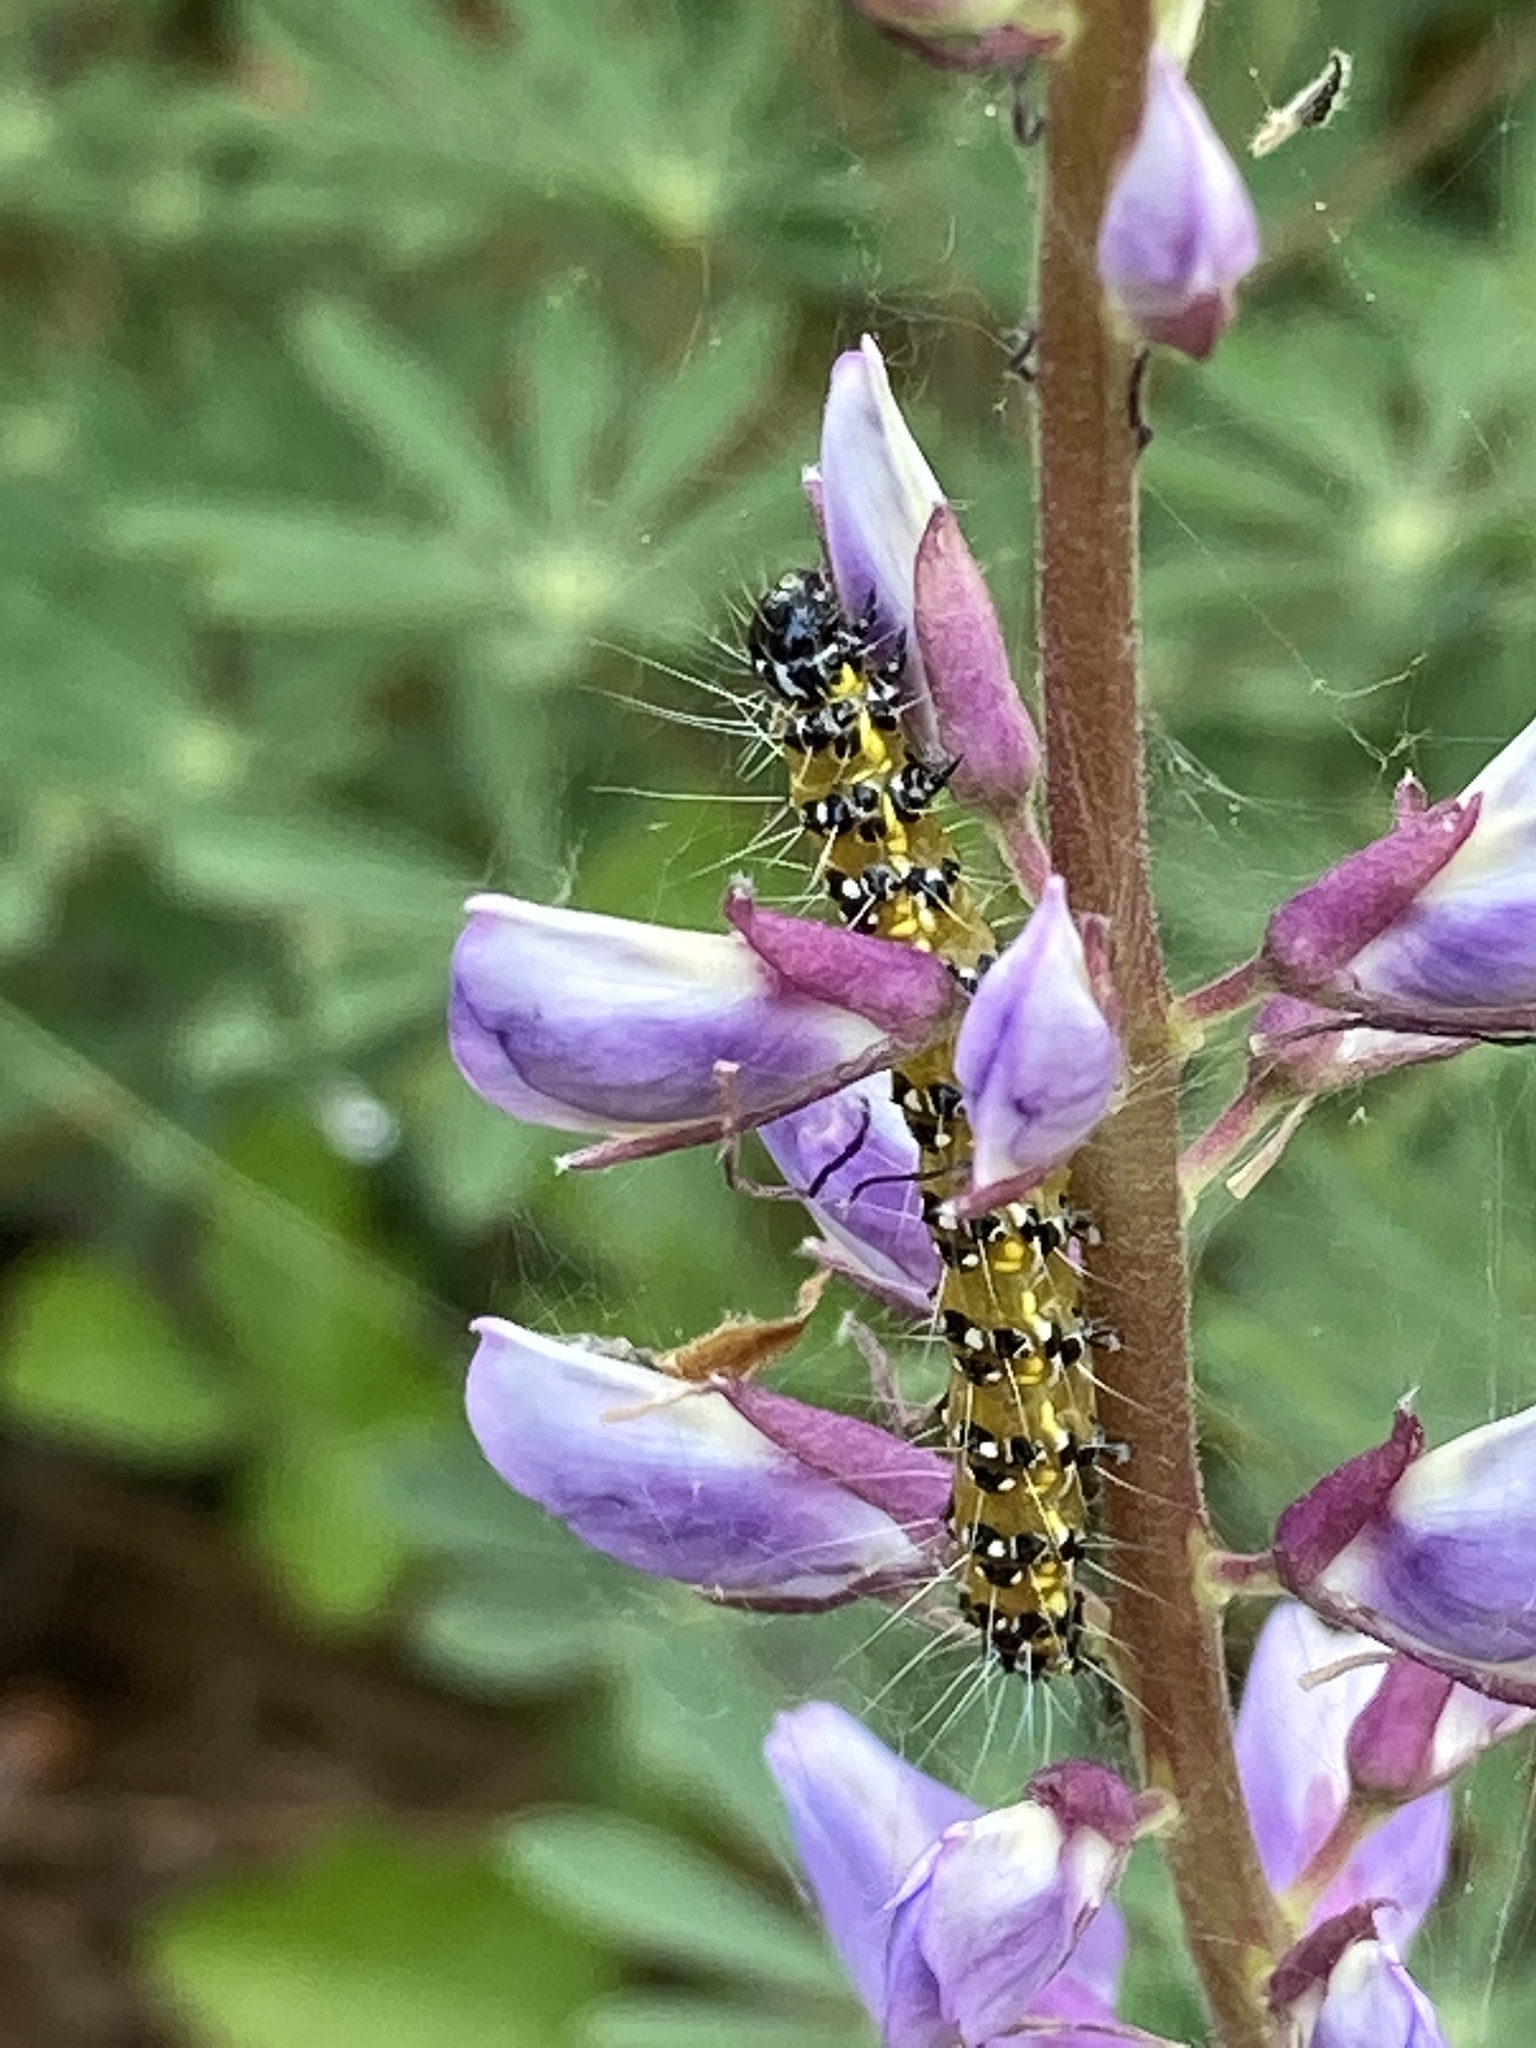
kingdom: Animalia
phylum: Arthropoda
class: Insecta
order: Lepidoptera
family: Crambidae
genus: Uresiphita
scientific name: Uresiphita reversalis
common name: Genista broom moth
